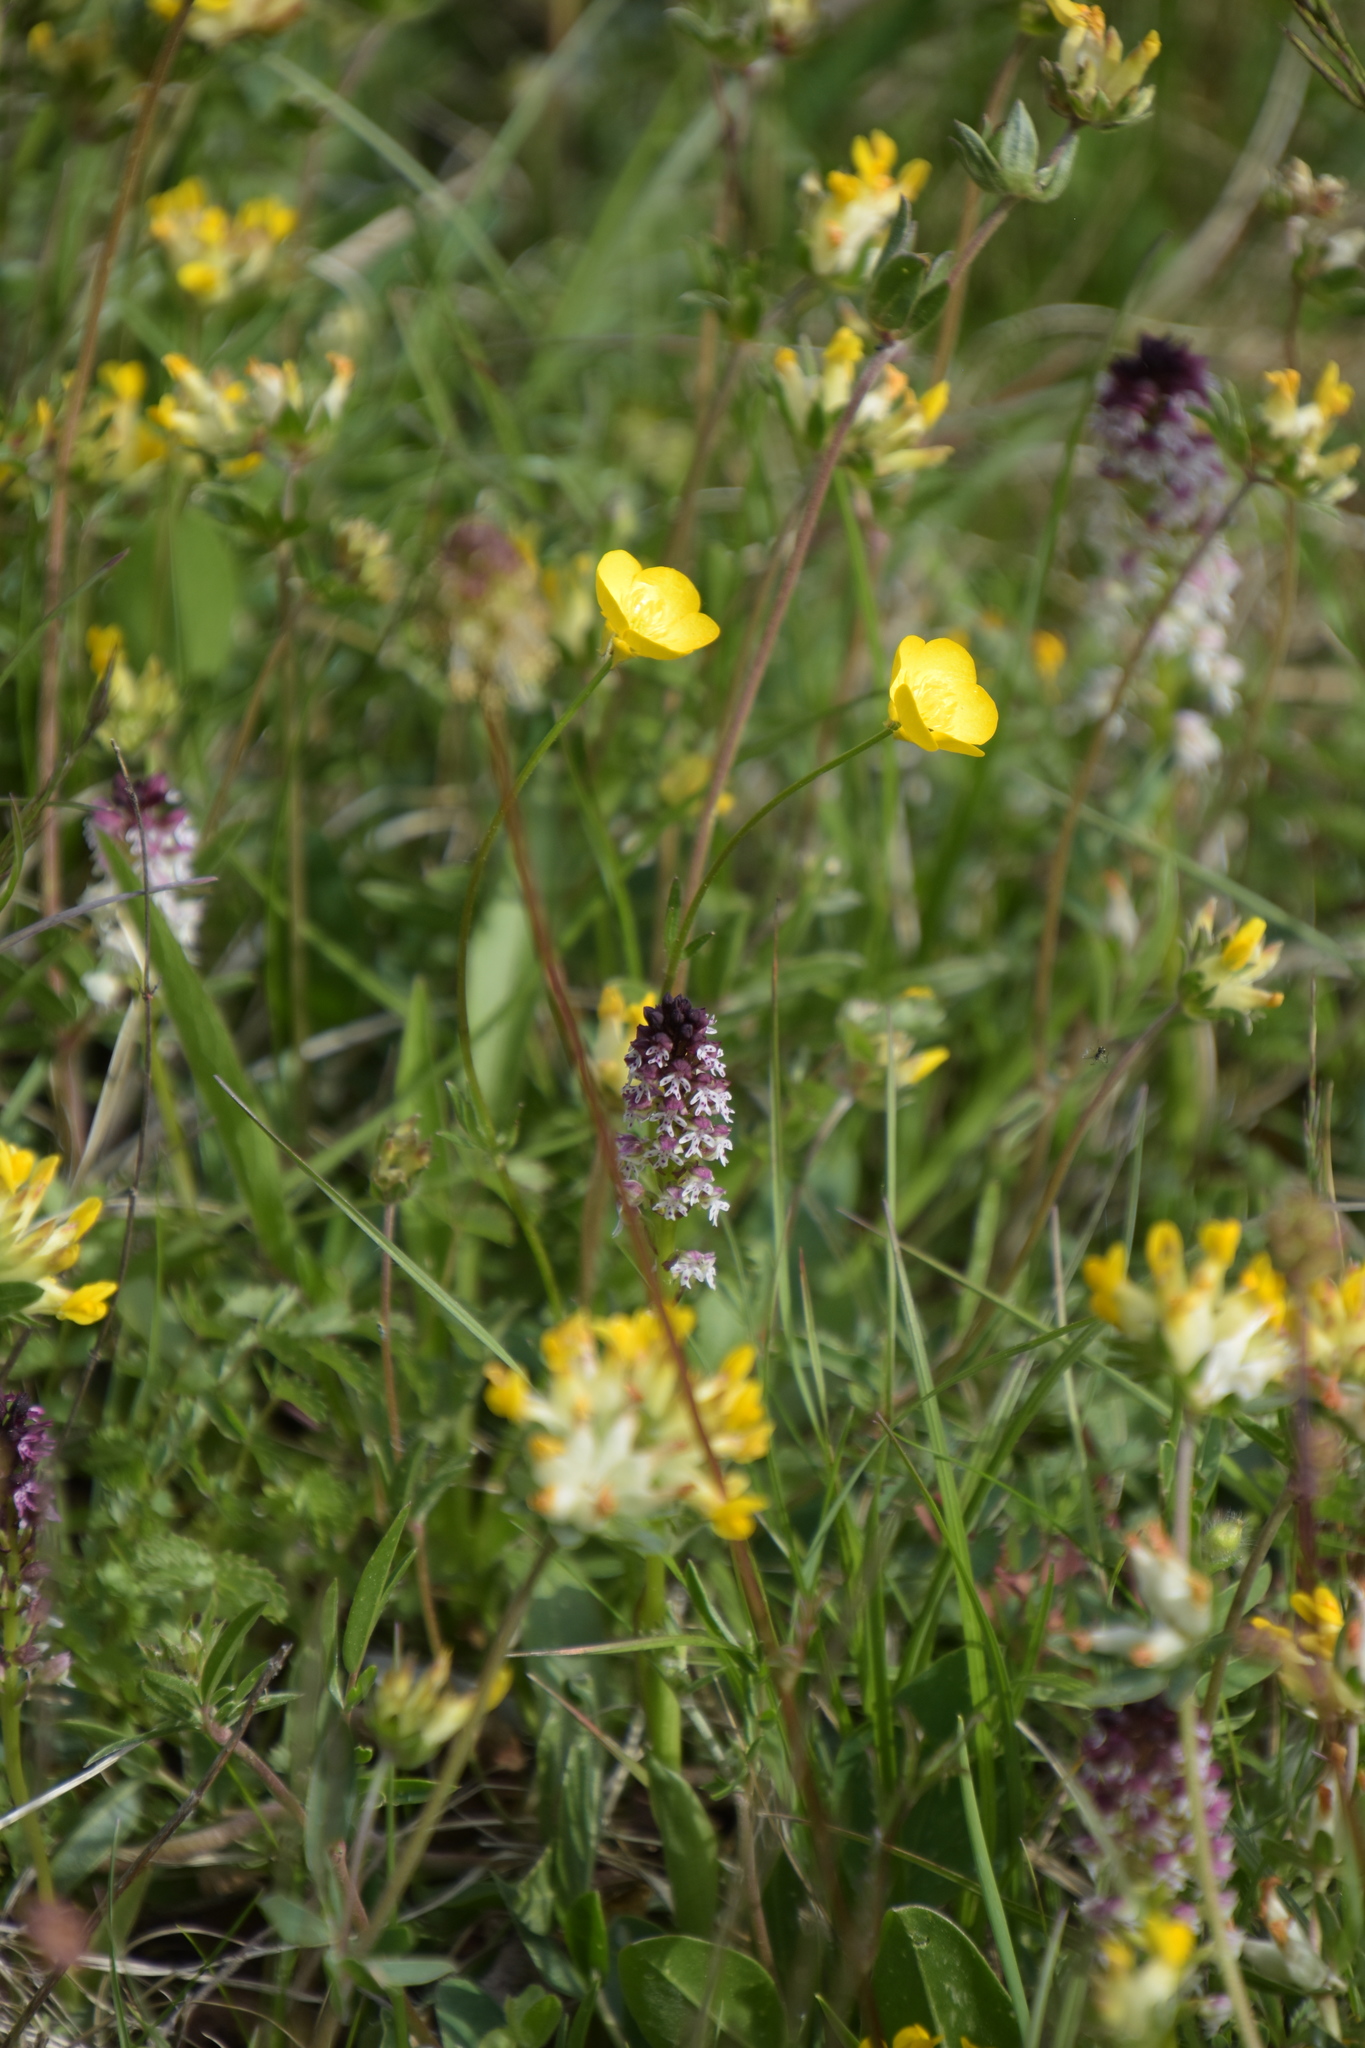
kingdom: Plantae
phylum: Tracheophyta
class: Liliopsida
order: Asparagales
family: Orchidaceae
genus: Neotinea
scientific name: Neotinea ustulata
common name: Burnt orchid
